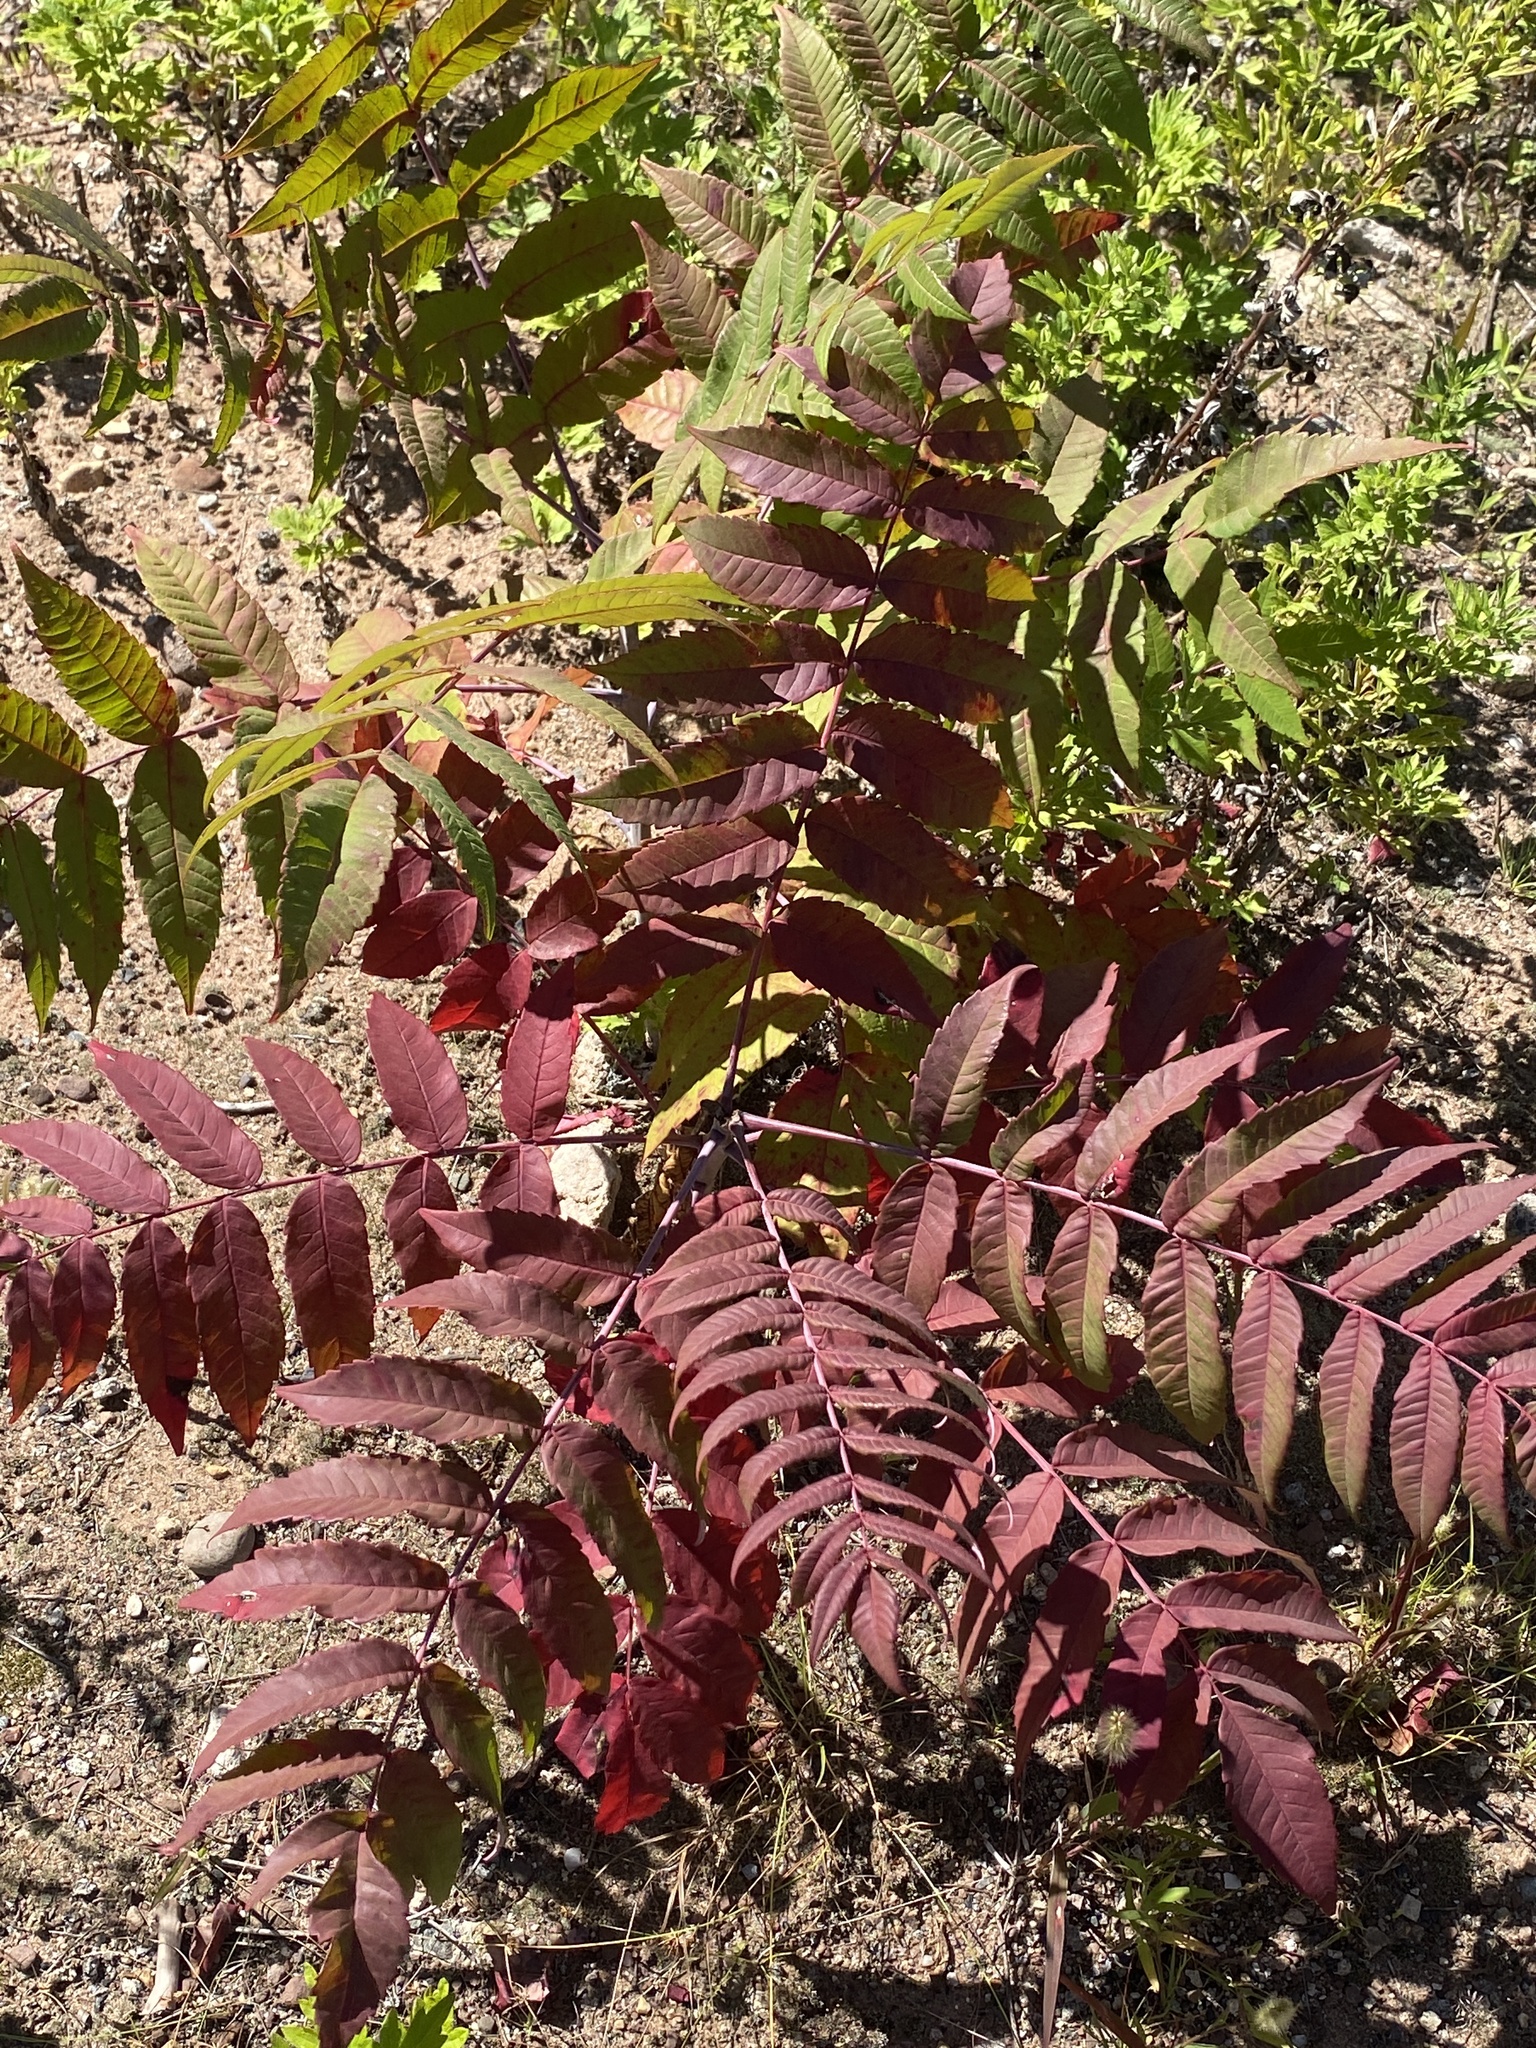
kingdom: Plantae
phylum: Tracheophyta
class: Magnoliopsida
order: Sapindales
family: Anacardiaceae
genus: Rhus
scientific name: Rhus glabra
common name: Scarlet sumac
